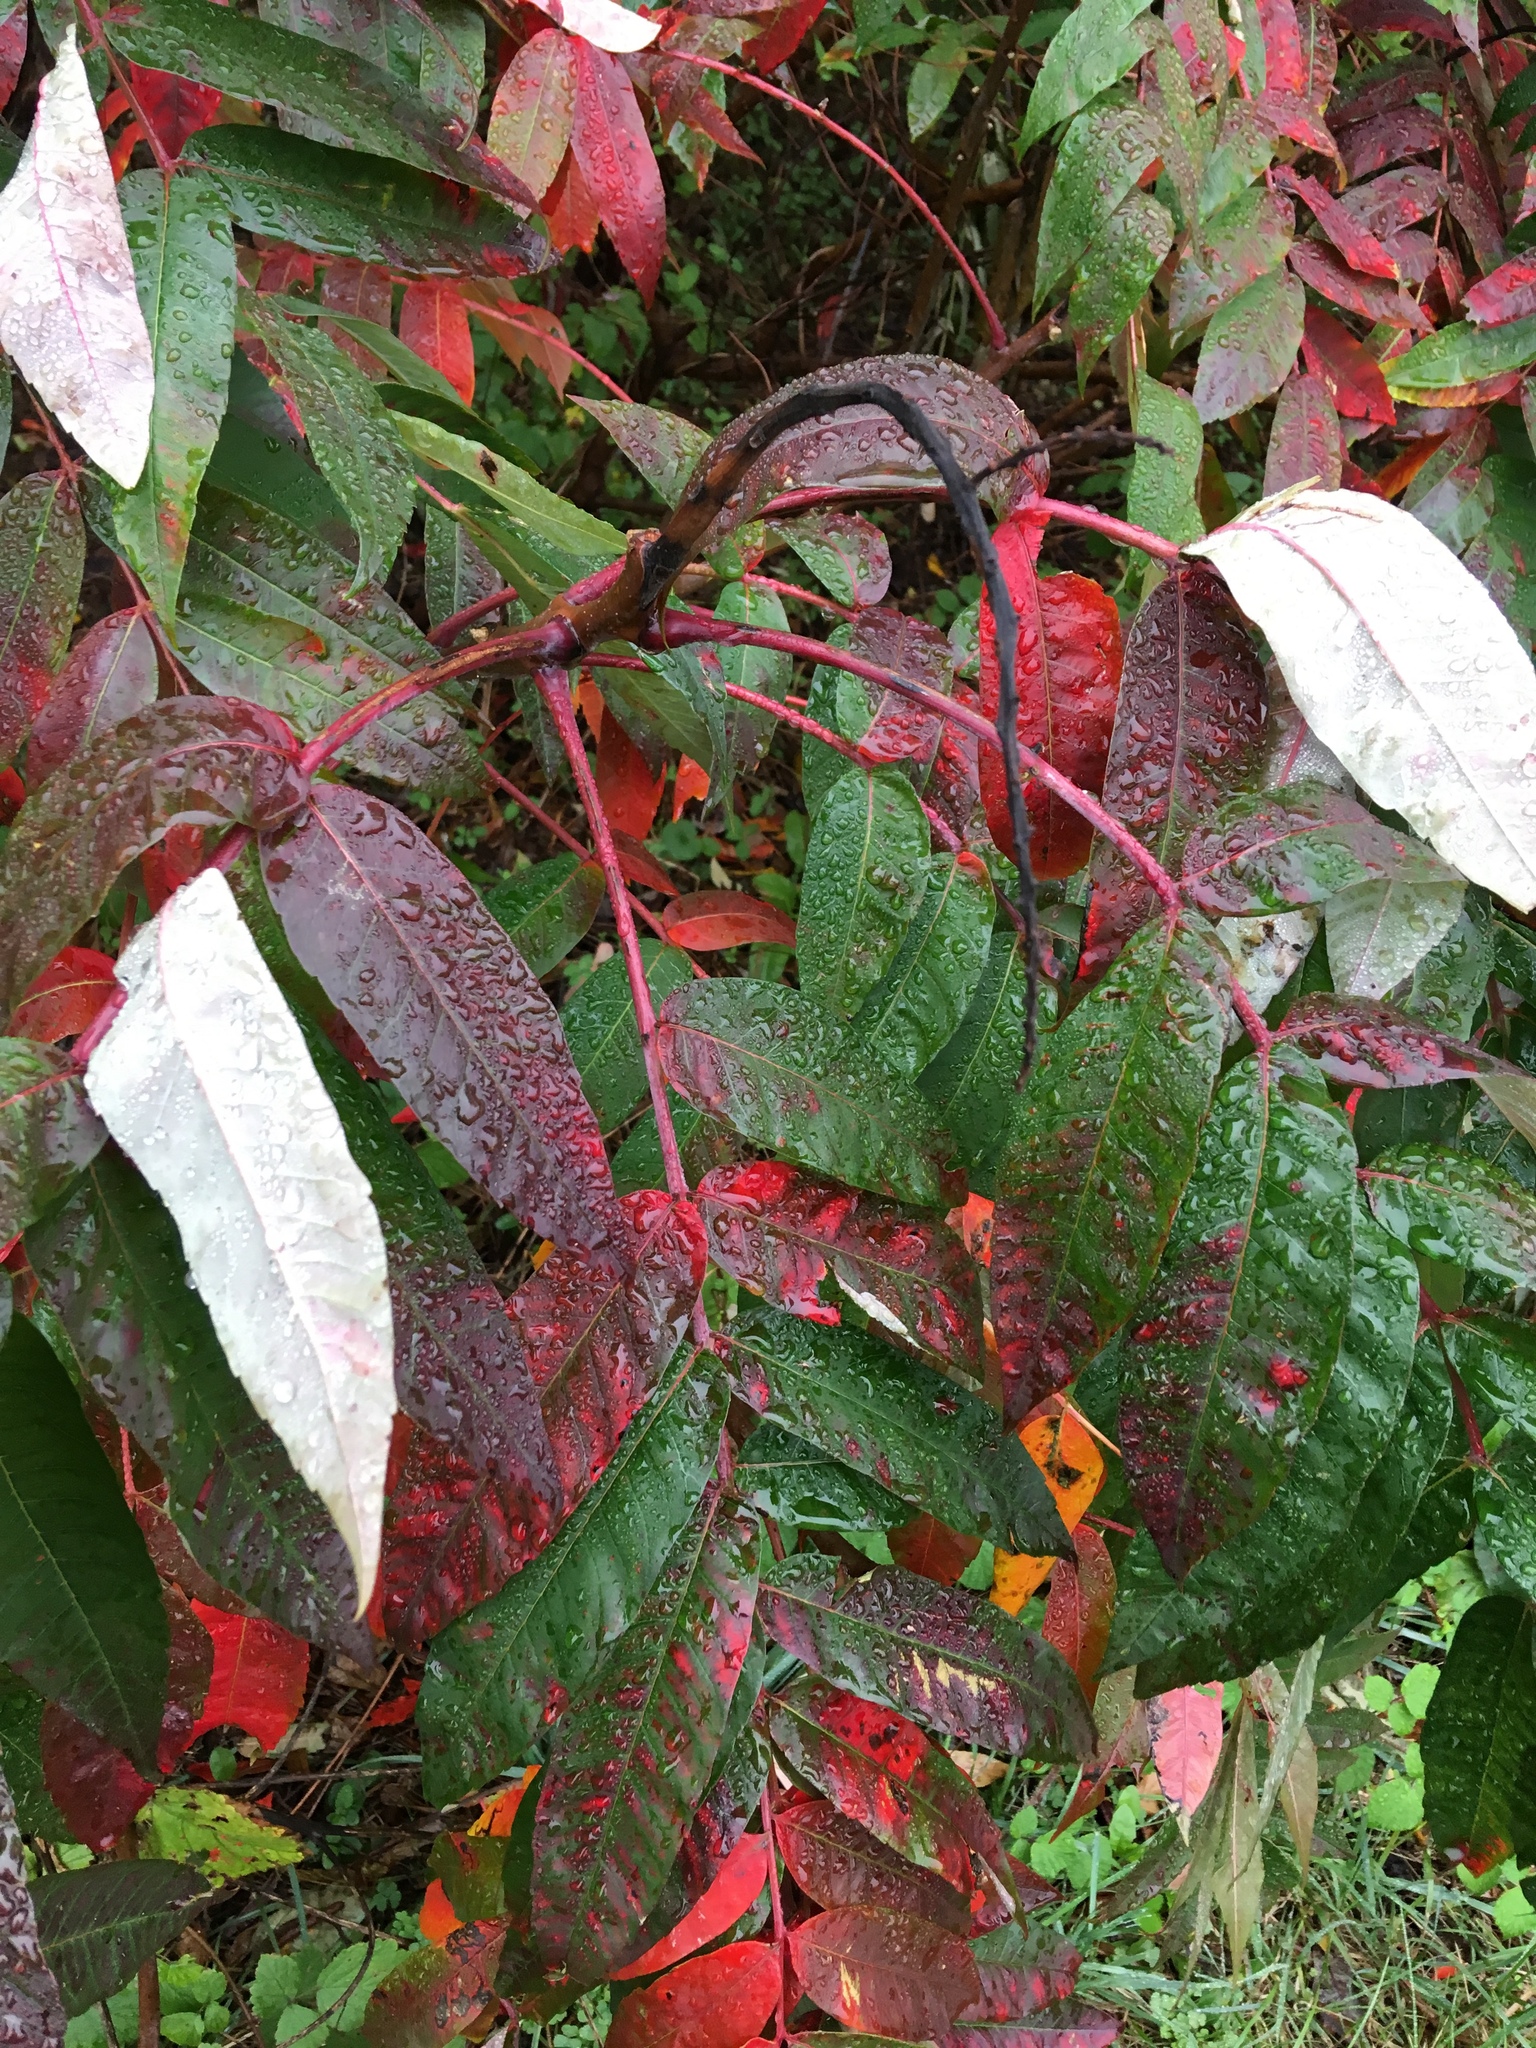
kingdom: Plantae
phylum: Tracheophyta
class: Magnoliopsida
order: Sapindales
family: Anacardiaceae
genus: Rhus
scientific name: Rhus glabra
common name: Scarlet sumac
